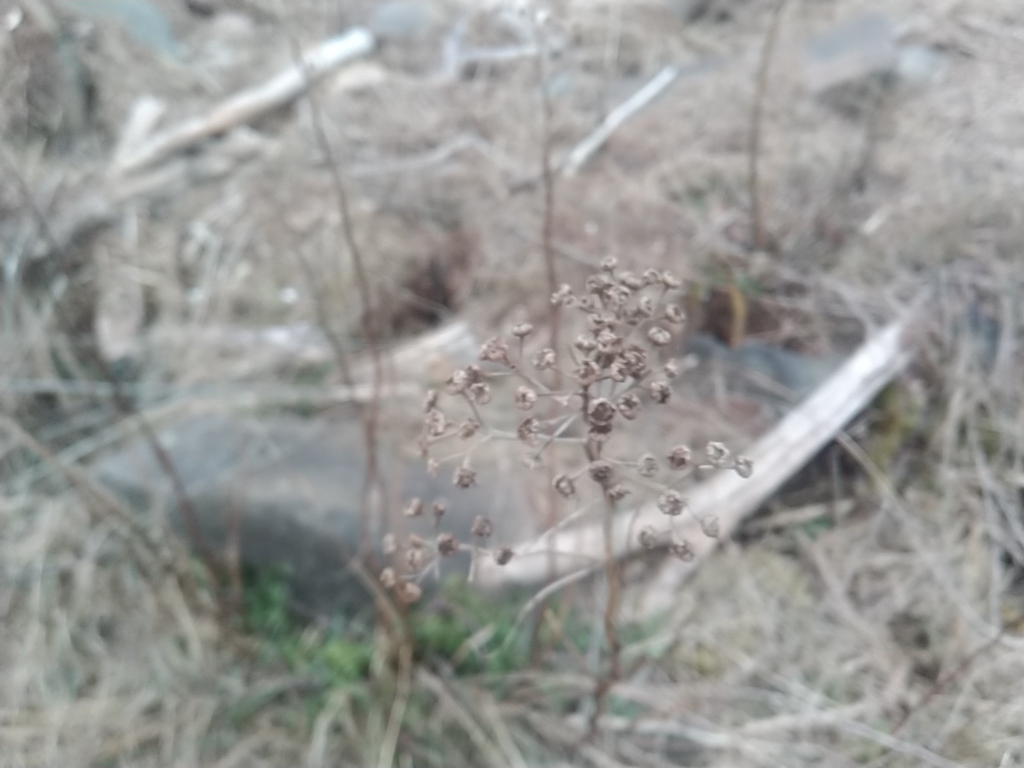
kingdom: Plantae
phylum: Tracheophyta
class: Magnoliopsida
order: Asterales
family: Asteraceae
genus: Tanacetum
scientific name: Tanacetum vulgare
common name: Common tansy
